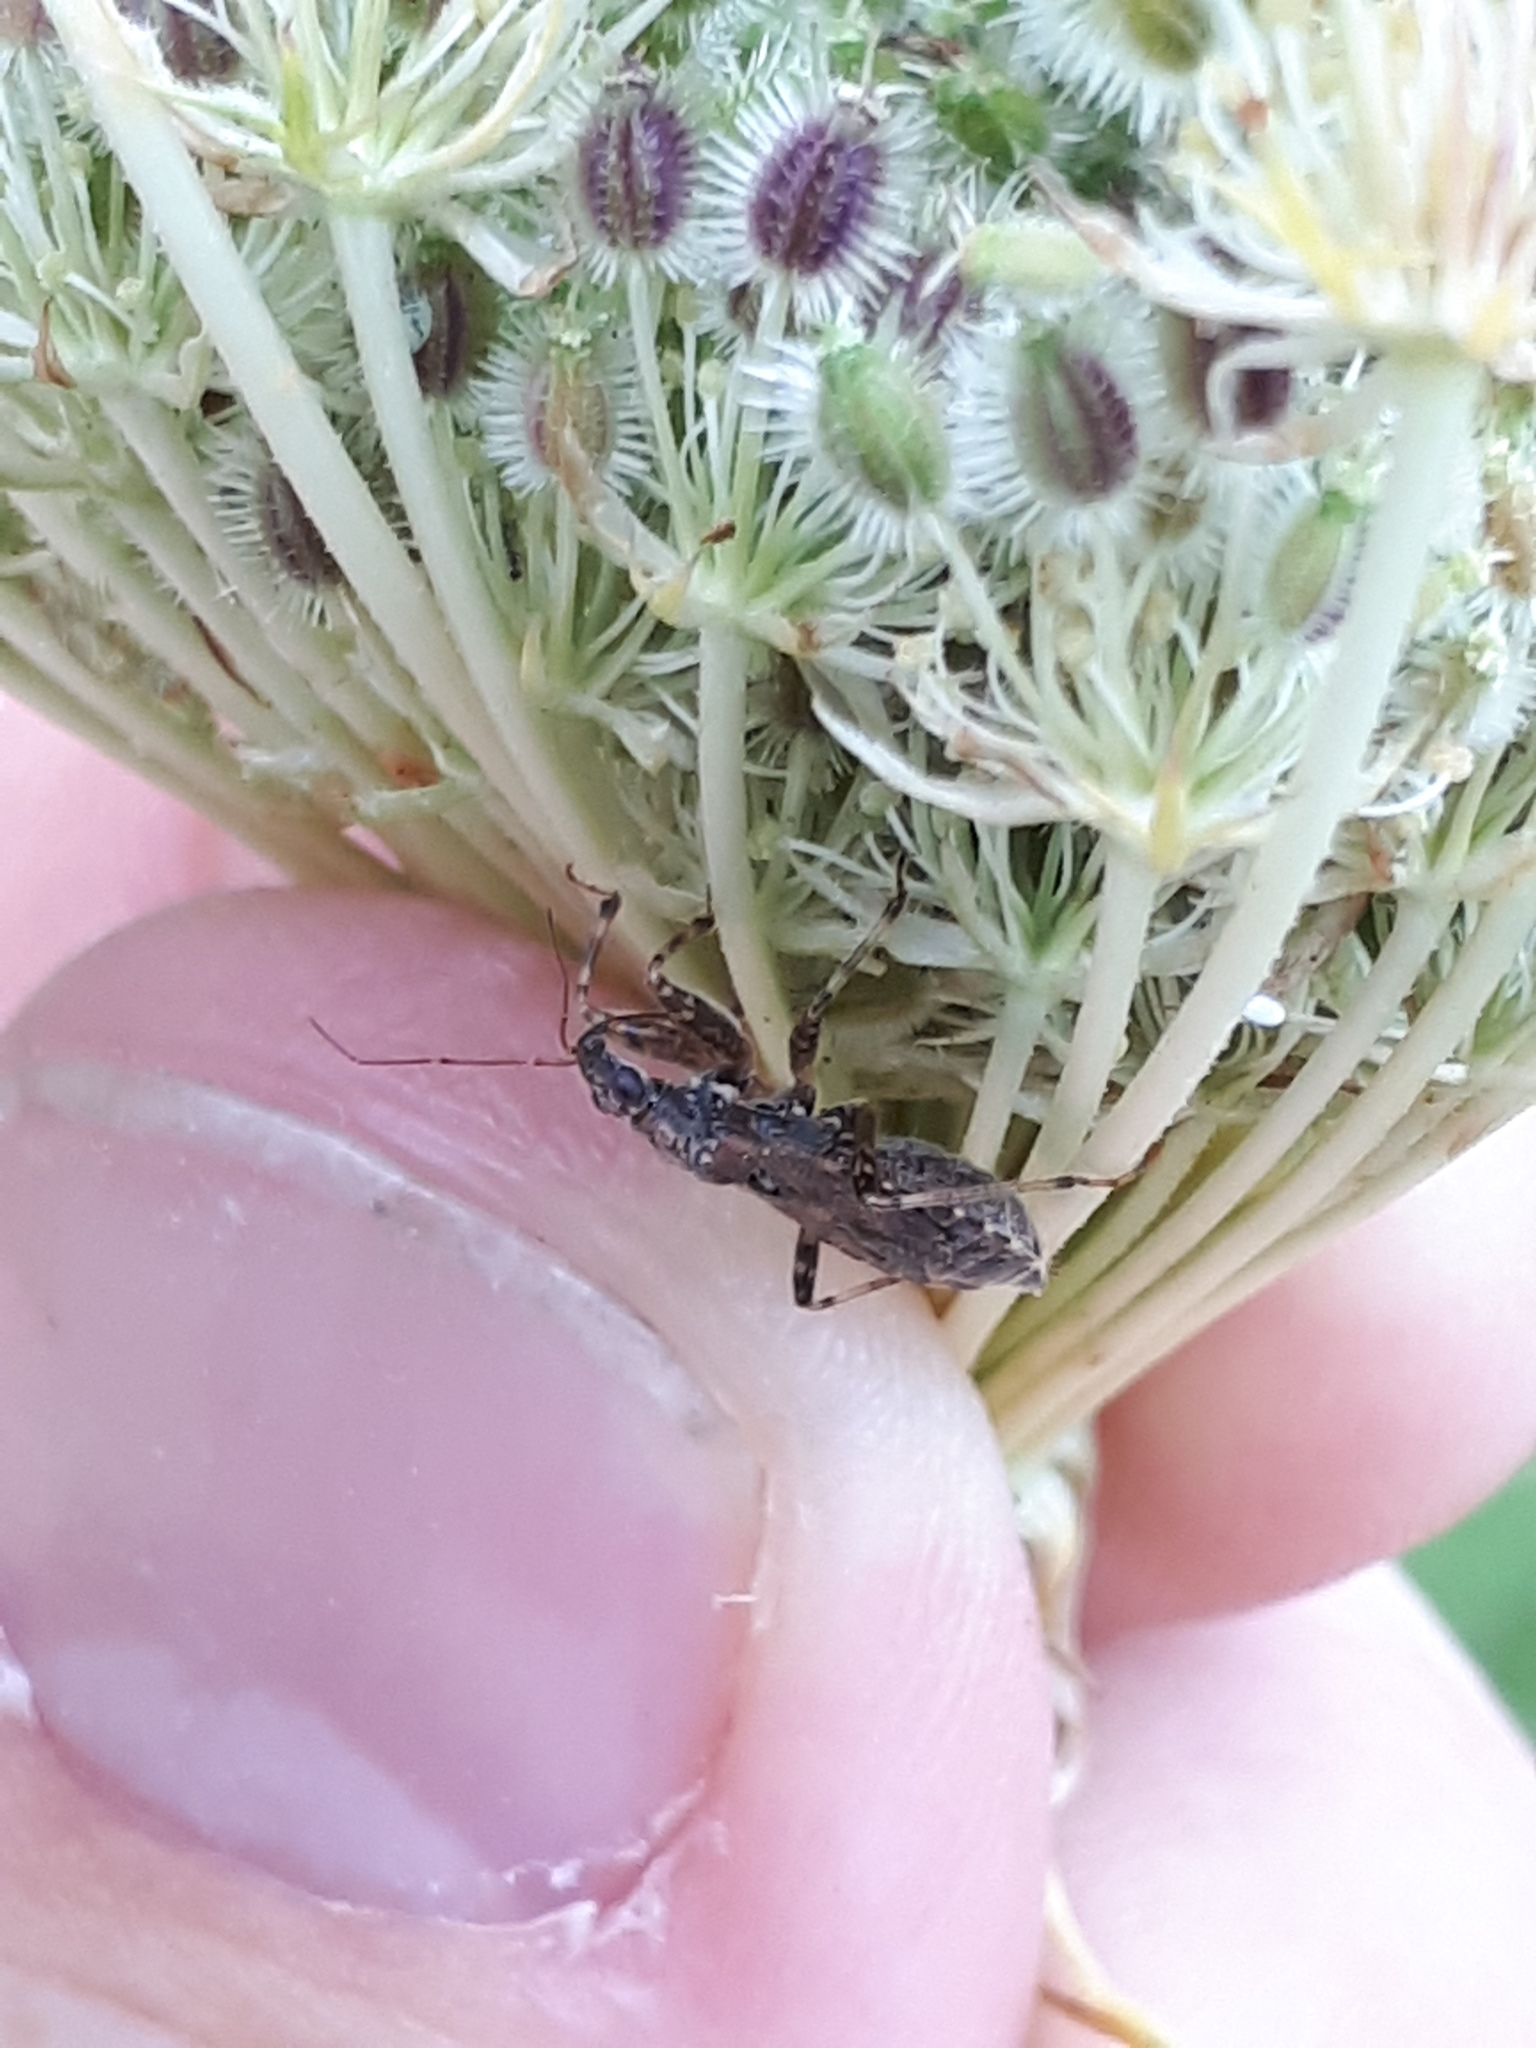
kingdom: Animalia
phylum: Arthropoda
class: Insecta
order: Hemiptera
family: Nabidae
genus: Himacerus
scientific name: Himacerus mirmicoides
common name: Ant damsel bug
